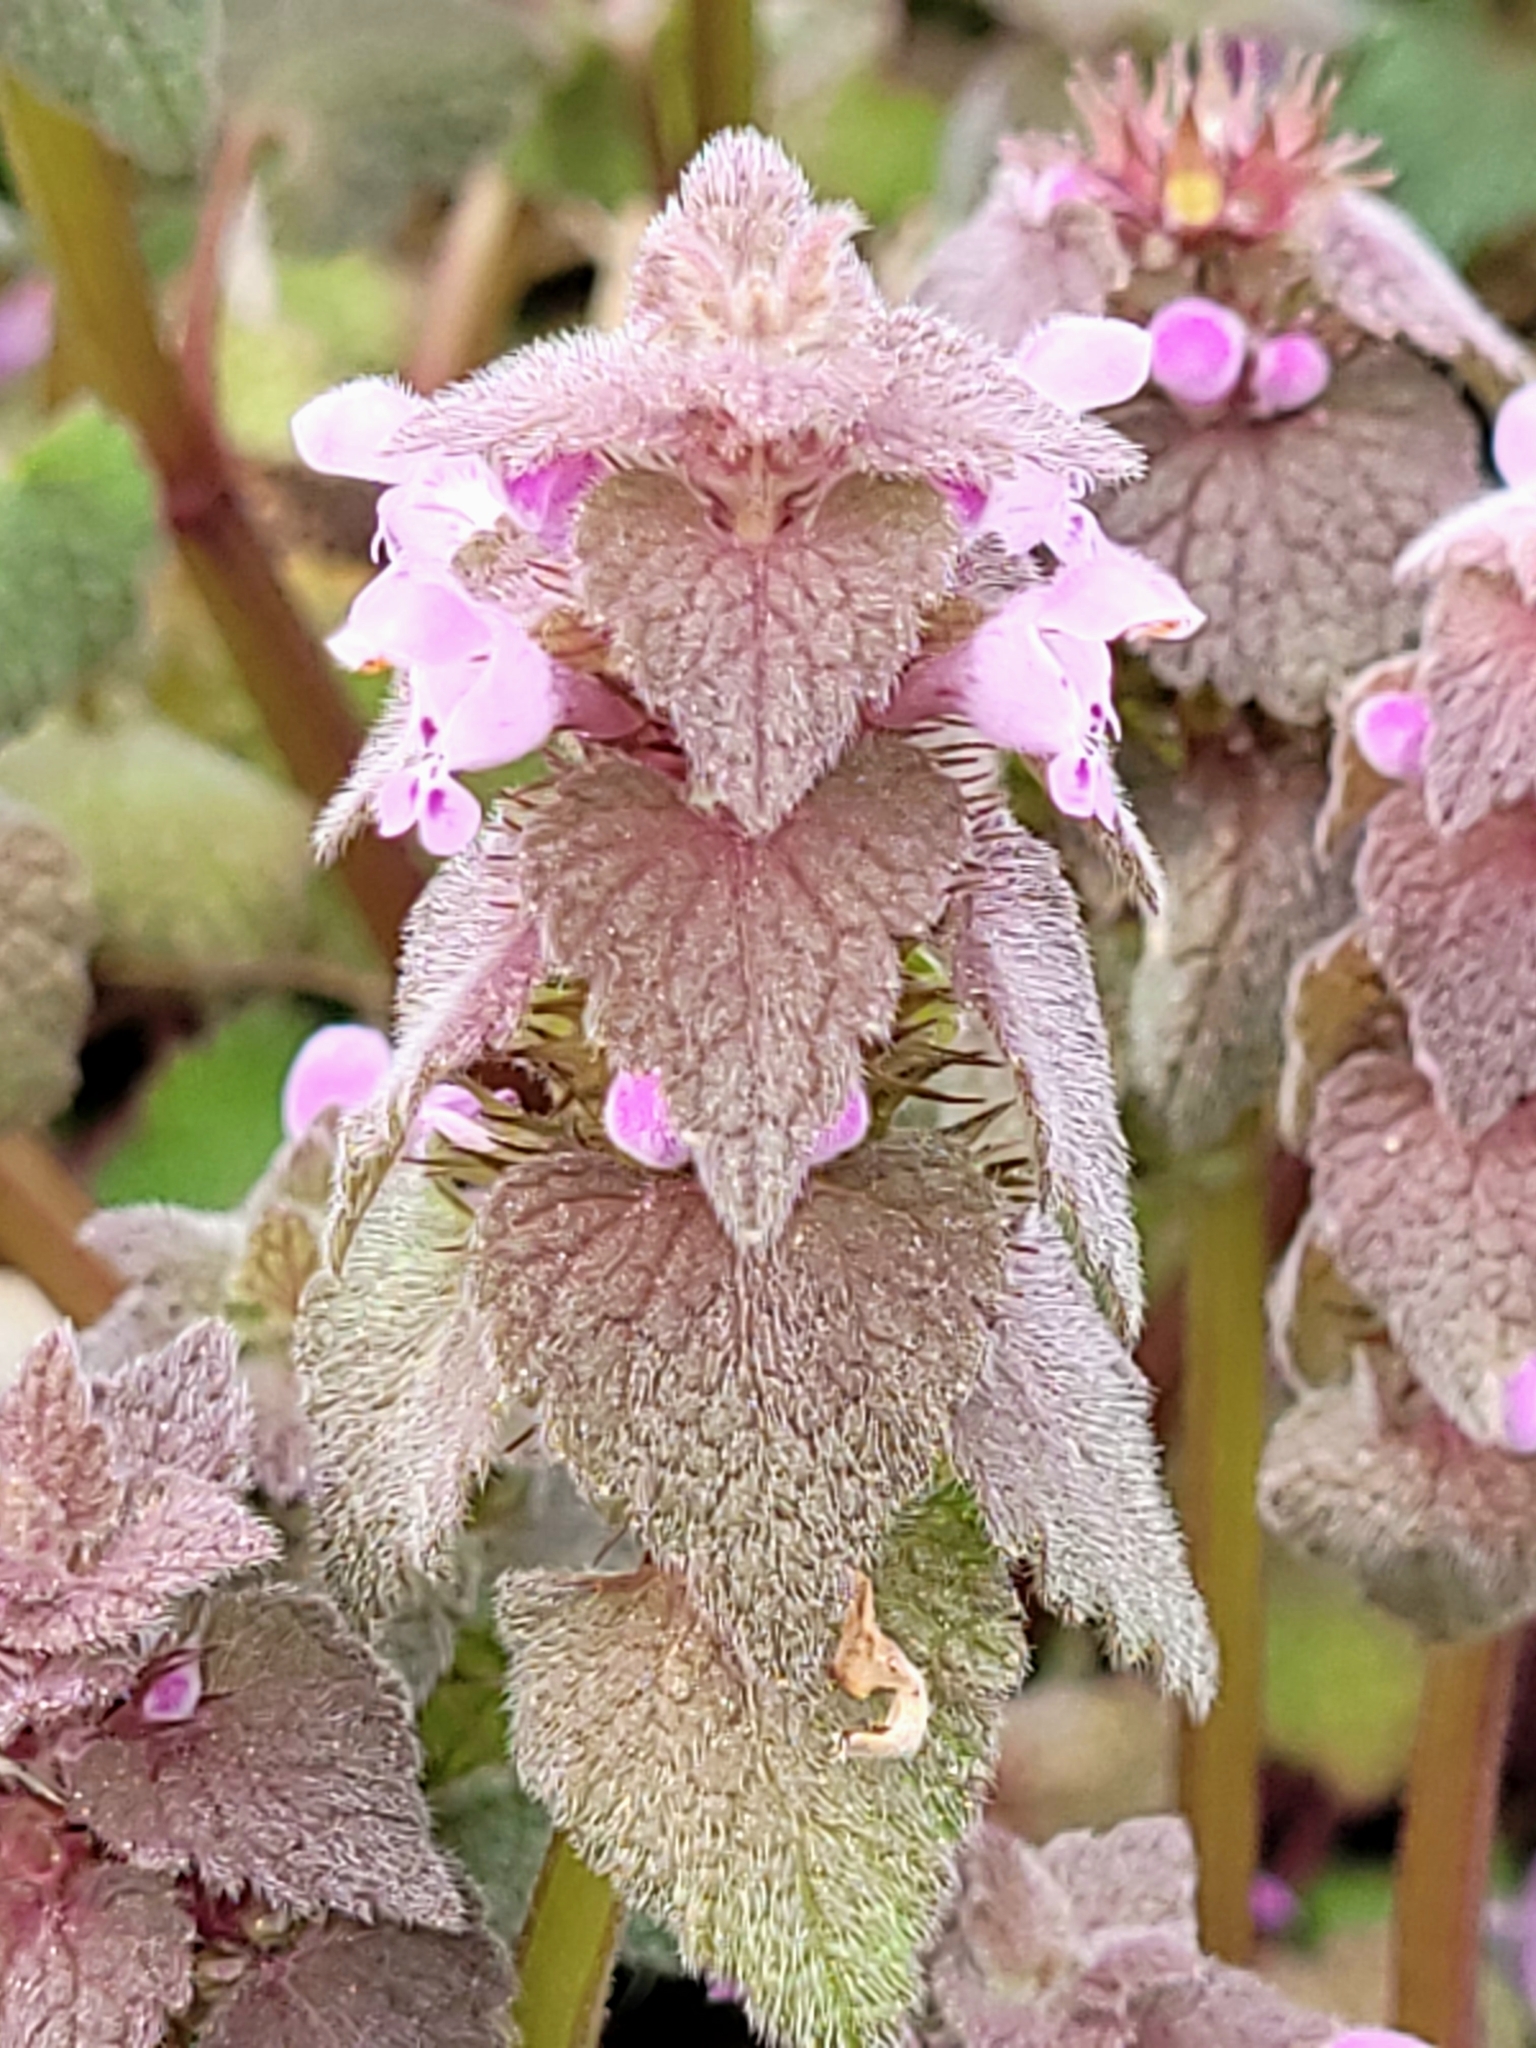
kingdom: Plantae
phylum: Tracheophyta
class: Magnoliopsida
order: Lamiales
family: Lamiaceae
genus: Lamium
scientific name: Lamium purpureum
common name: Red dead-nettle
